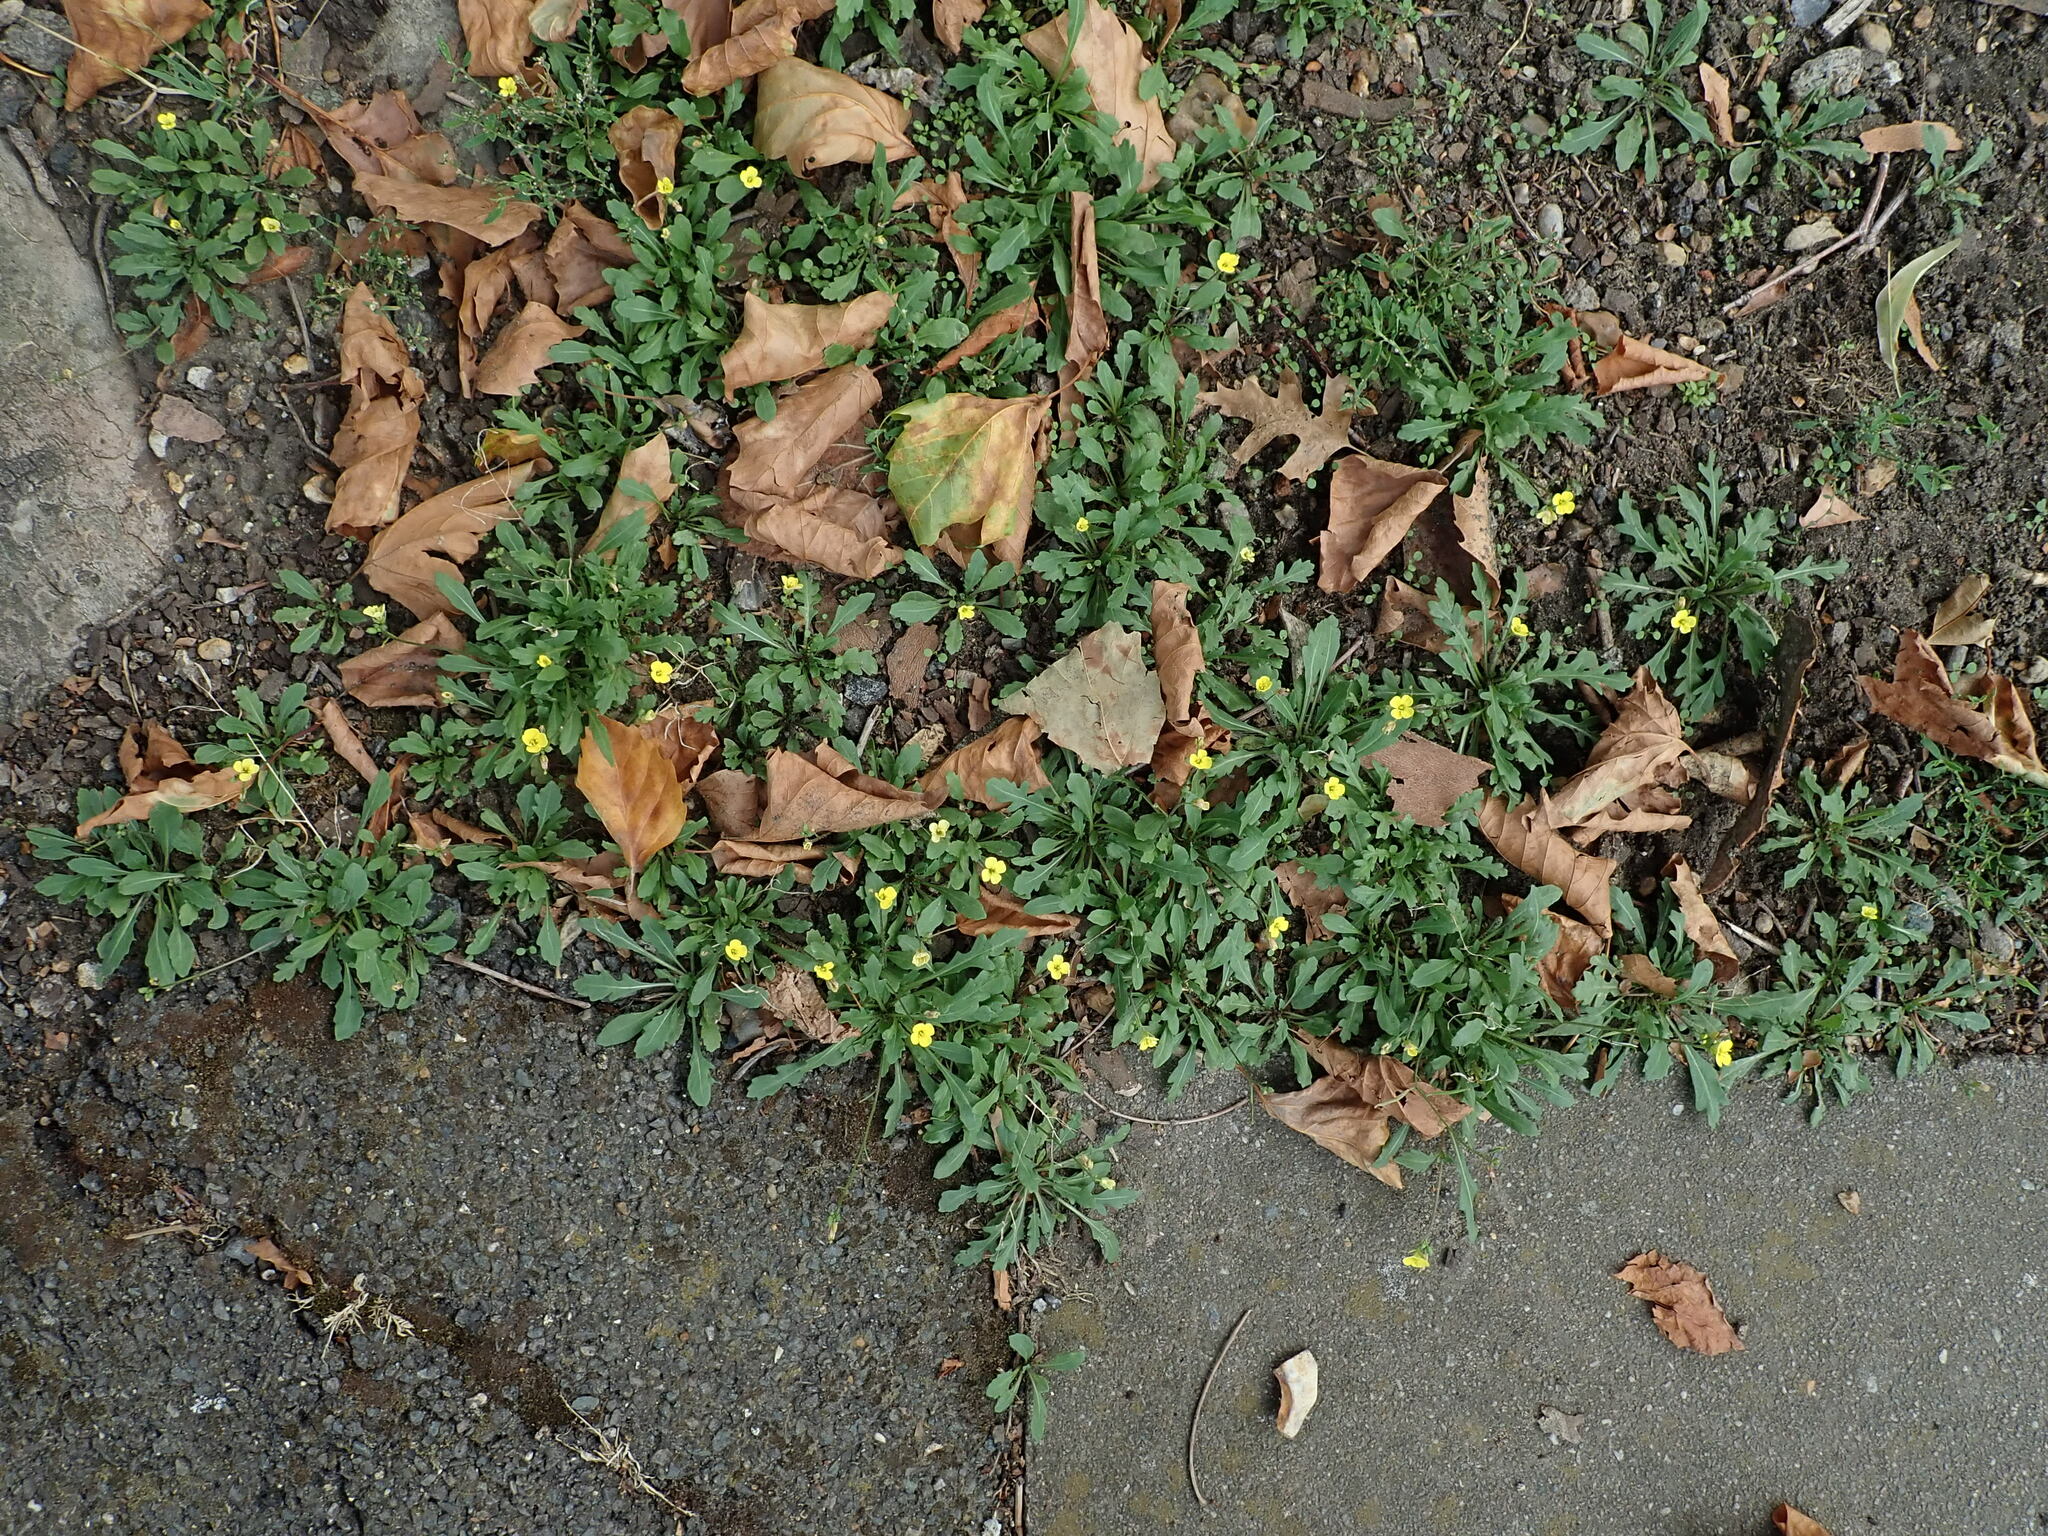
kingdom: Plantae
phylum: Tracheophyta
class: Magnoliopsida
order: Brassicales
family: Brassicaceae
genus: Diplotaxis
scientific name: Diplotaxis muralis
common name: Annual wall-rocket
